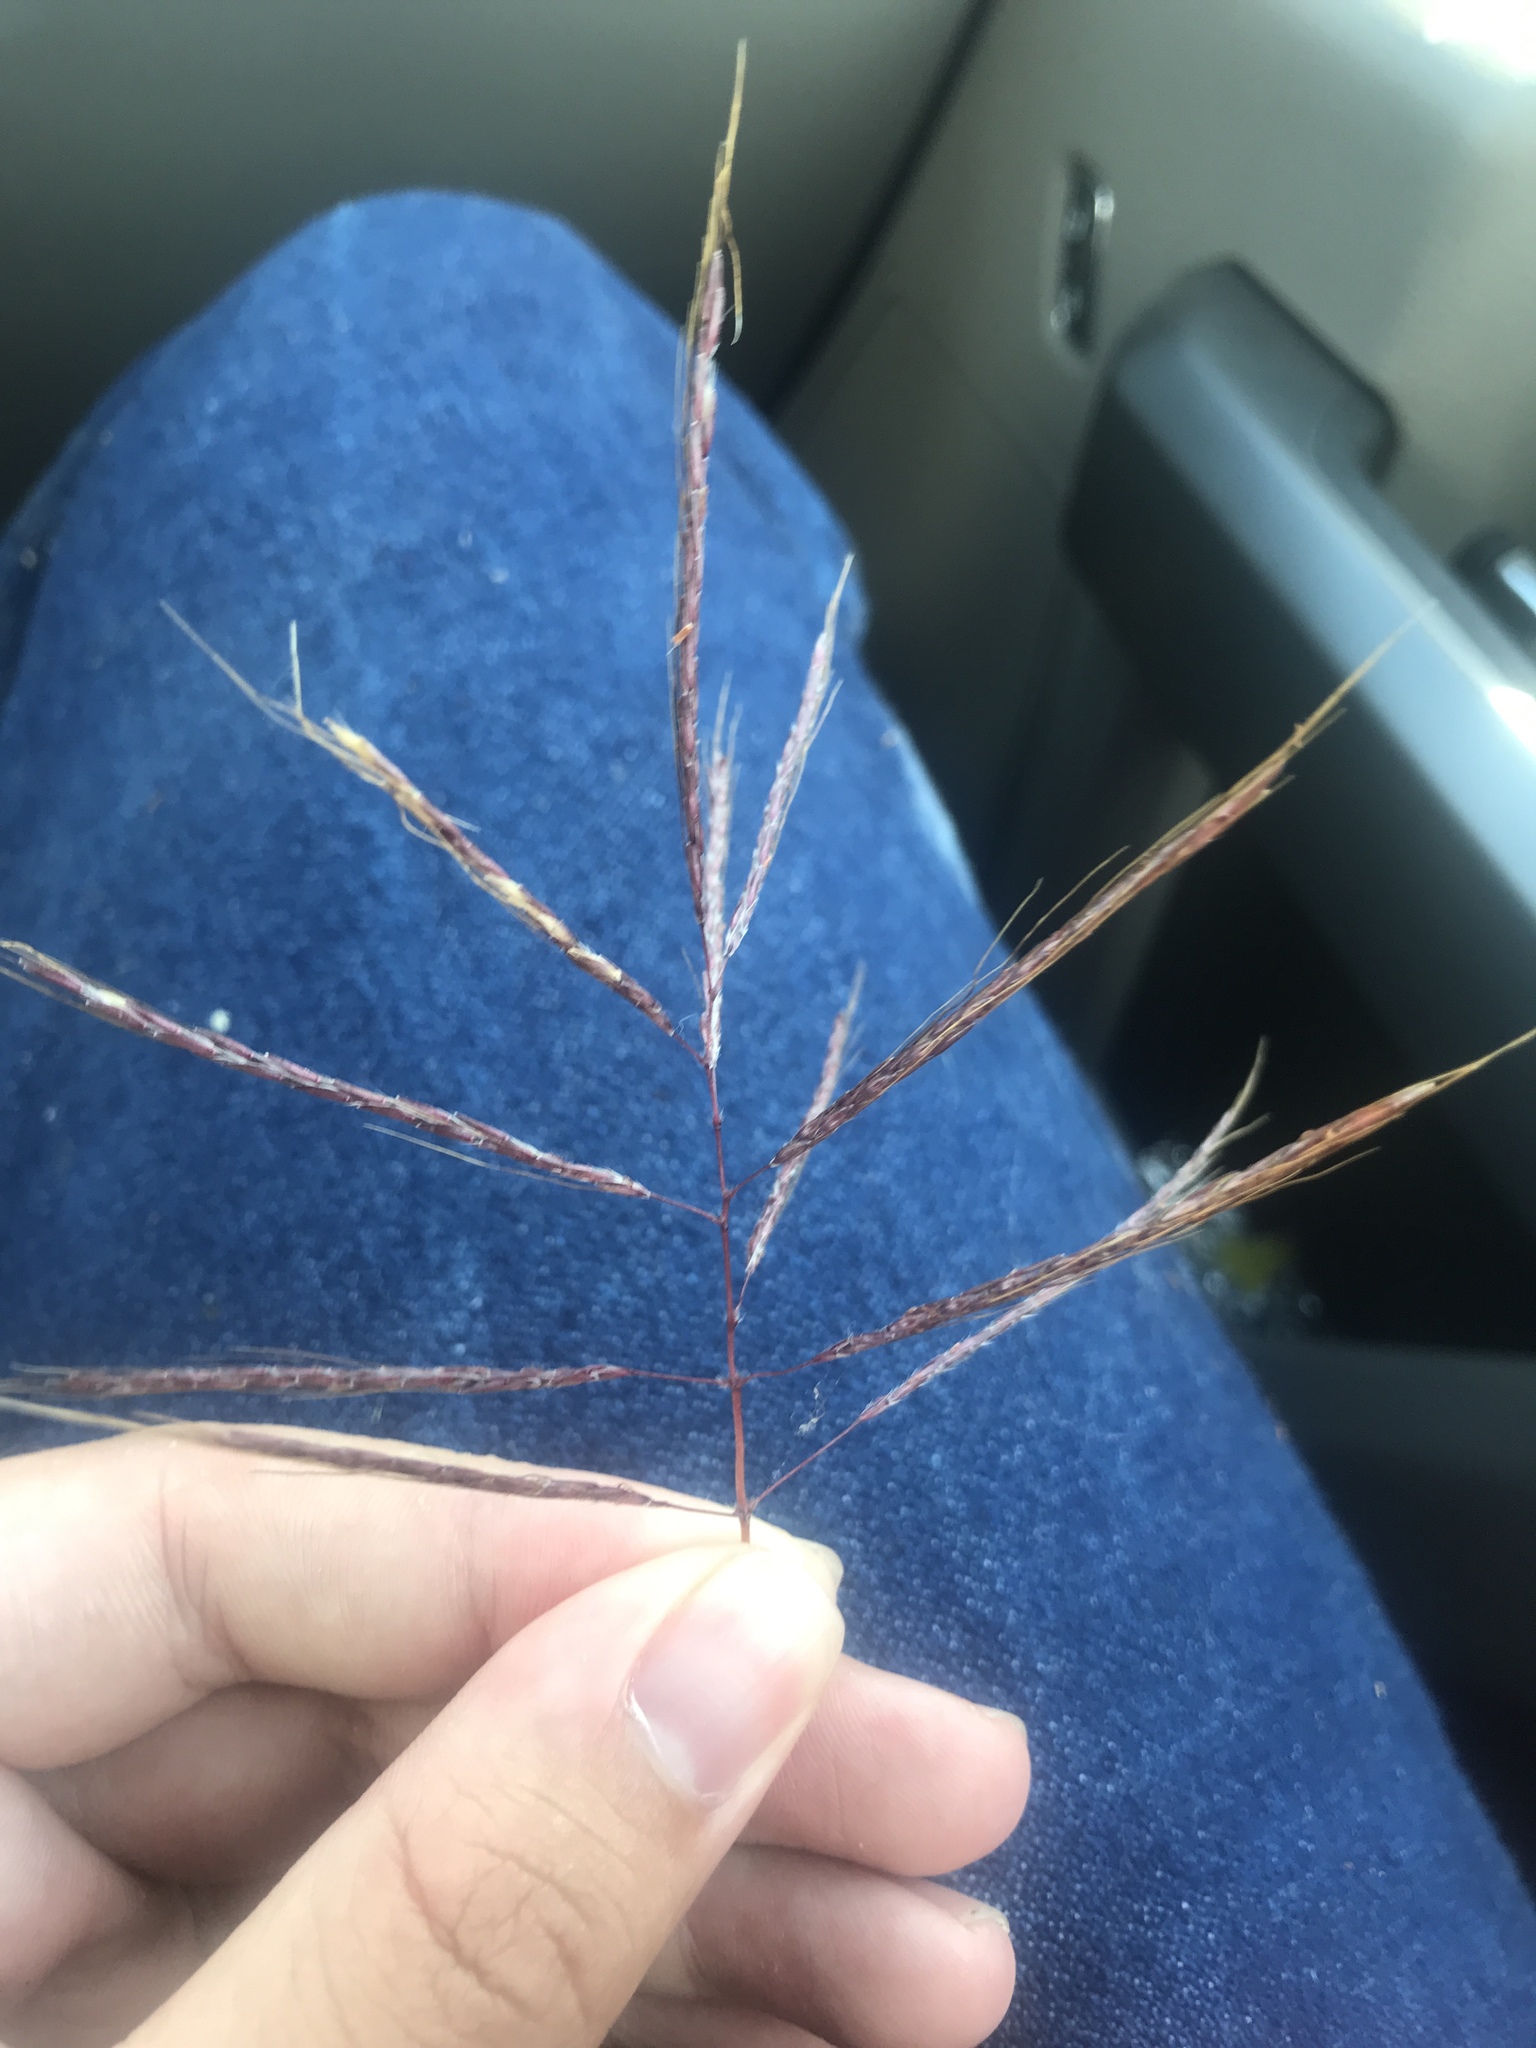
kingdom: Plantae
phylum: Tracheophyta
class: Liliopsida
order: Poales
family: Poaceae
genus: Bothriochloa
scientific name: Bothriochloa ischaemum
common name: Yellow bluestem
